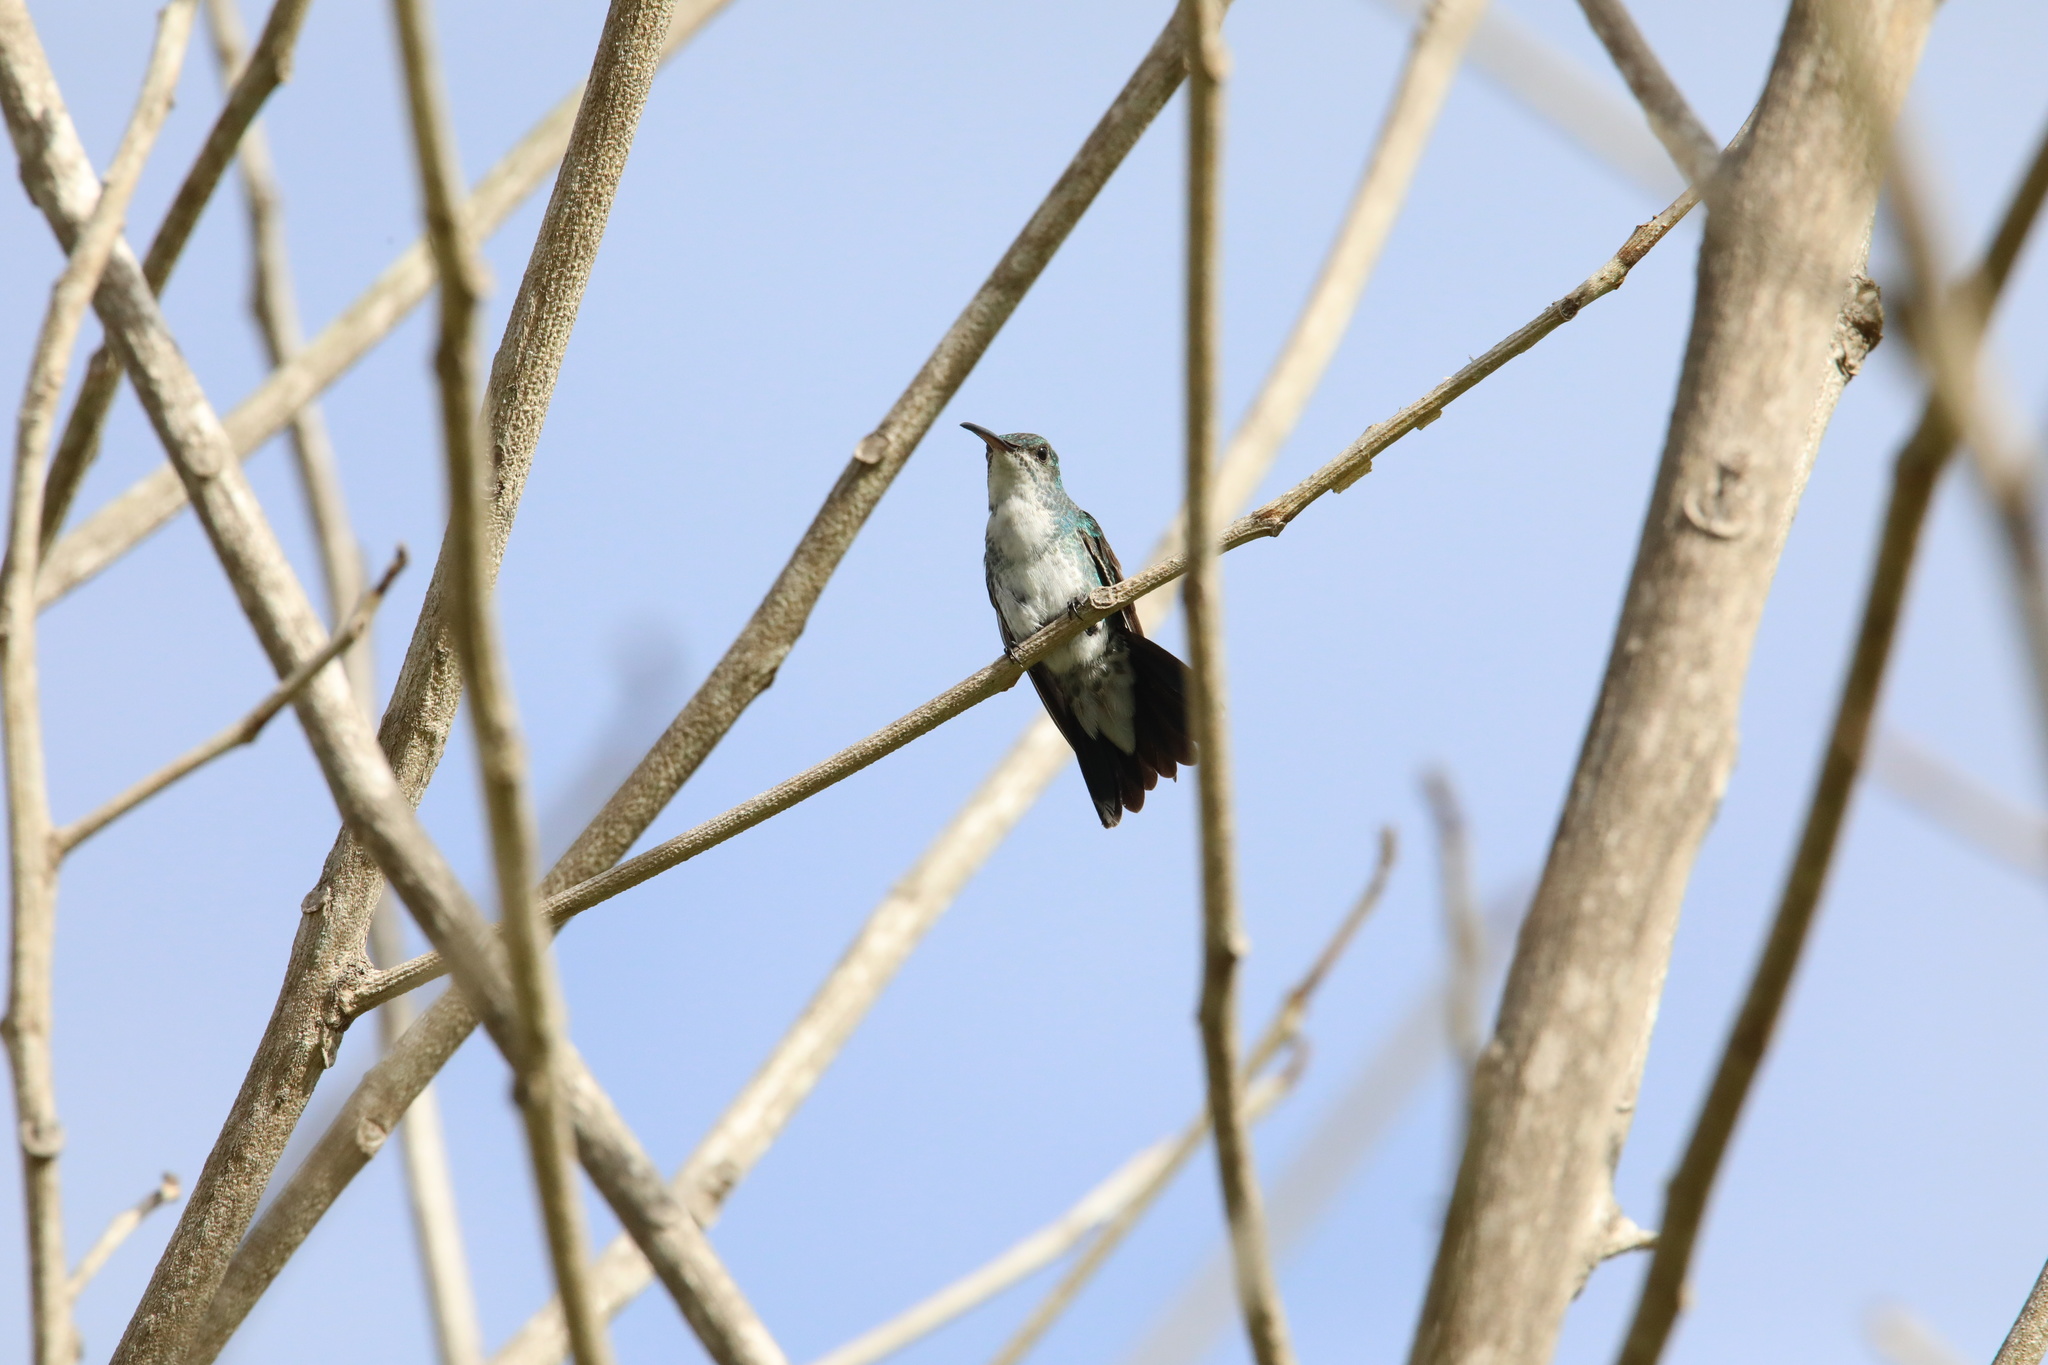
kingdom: Animalia
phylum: Chordata
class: Aves
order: Apodiformes
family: Trochilidae
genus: Chrysuronia
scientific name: Chrysuronia coeruleogularis
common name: Sapphire-throated hummingbird
